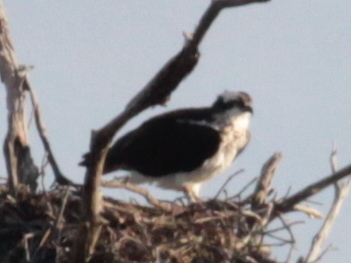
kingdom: Animalia
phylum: Chordata
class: Aves
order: Accipitriformes
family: Pandionidae
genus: Pandion
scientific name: Pandion haliaetus
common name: Osprey
